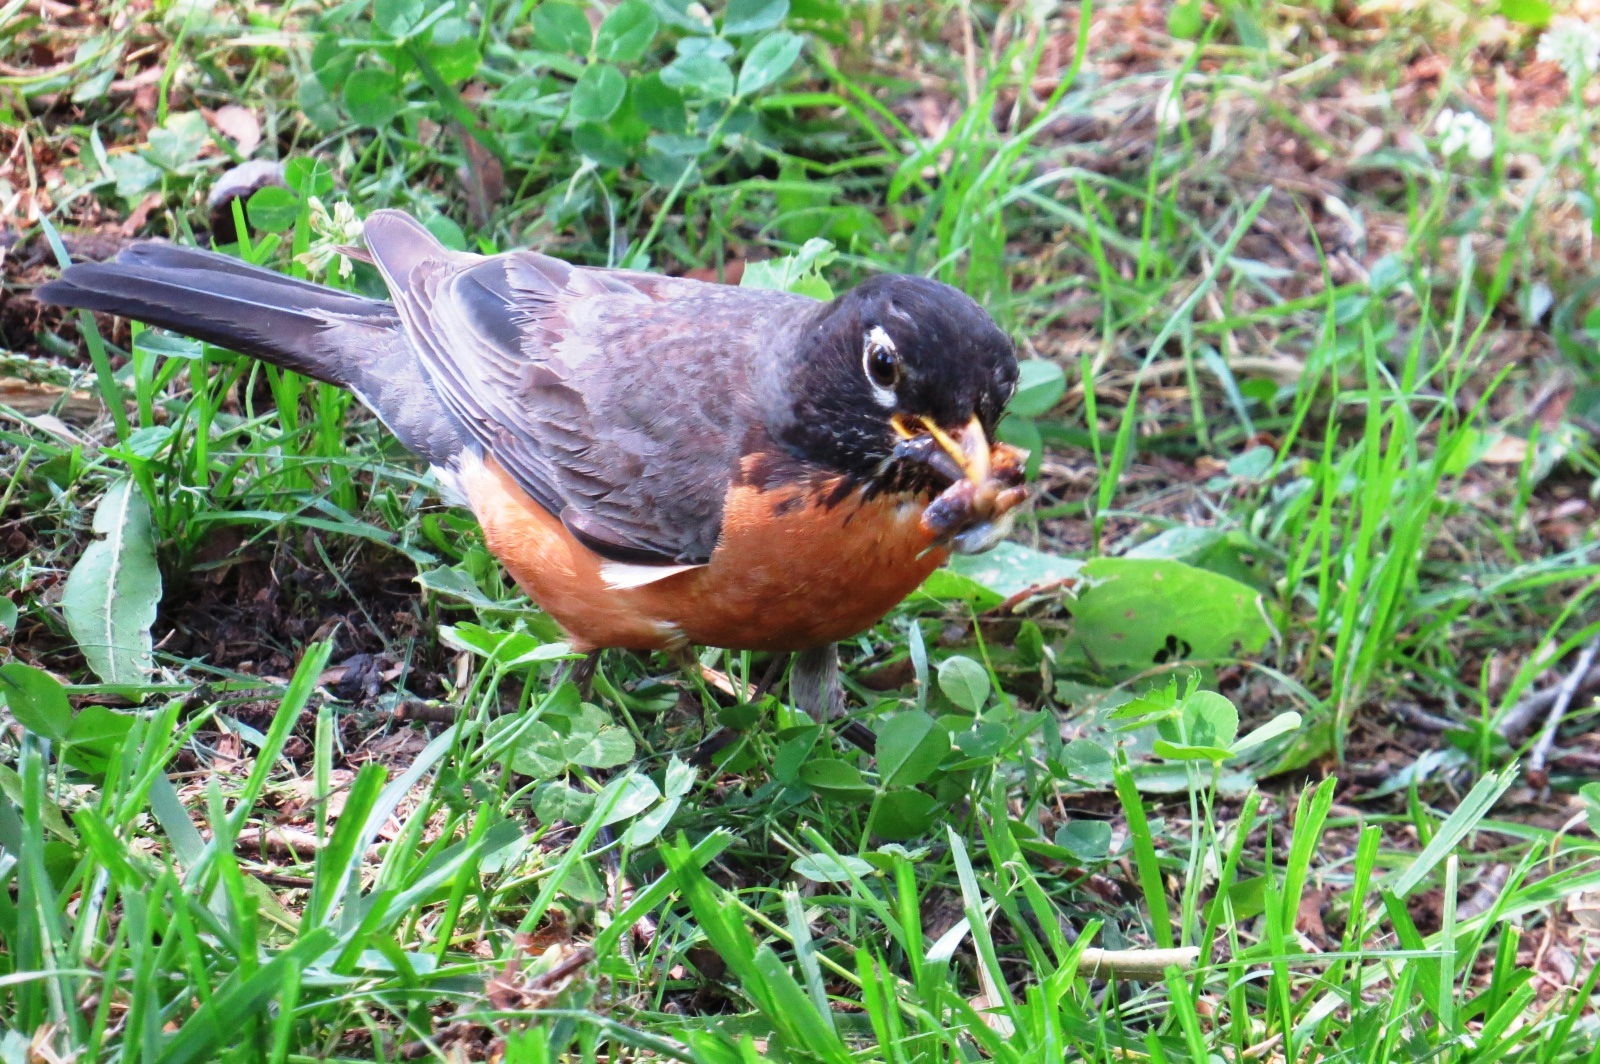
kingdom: Animalia
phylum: Chordata
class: Aves
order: Passeriformes
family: Turdidae
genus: Turdus
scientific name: Turdus migratorius
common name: American robin
